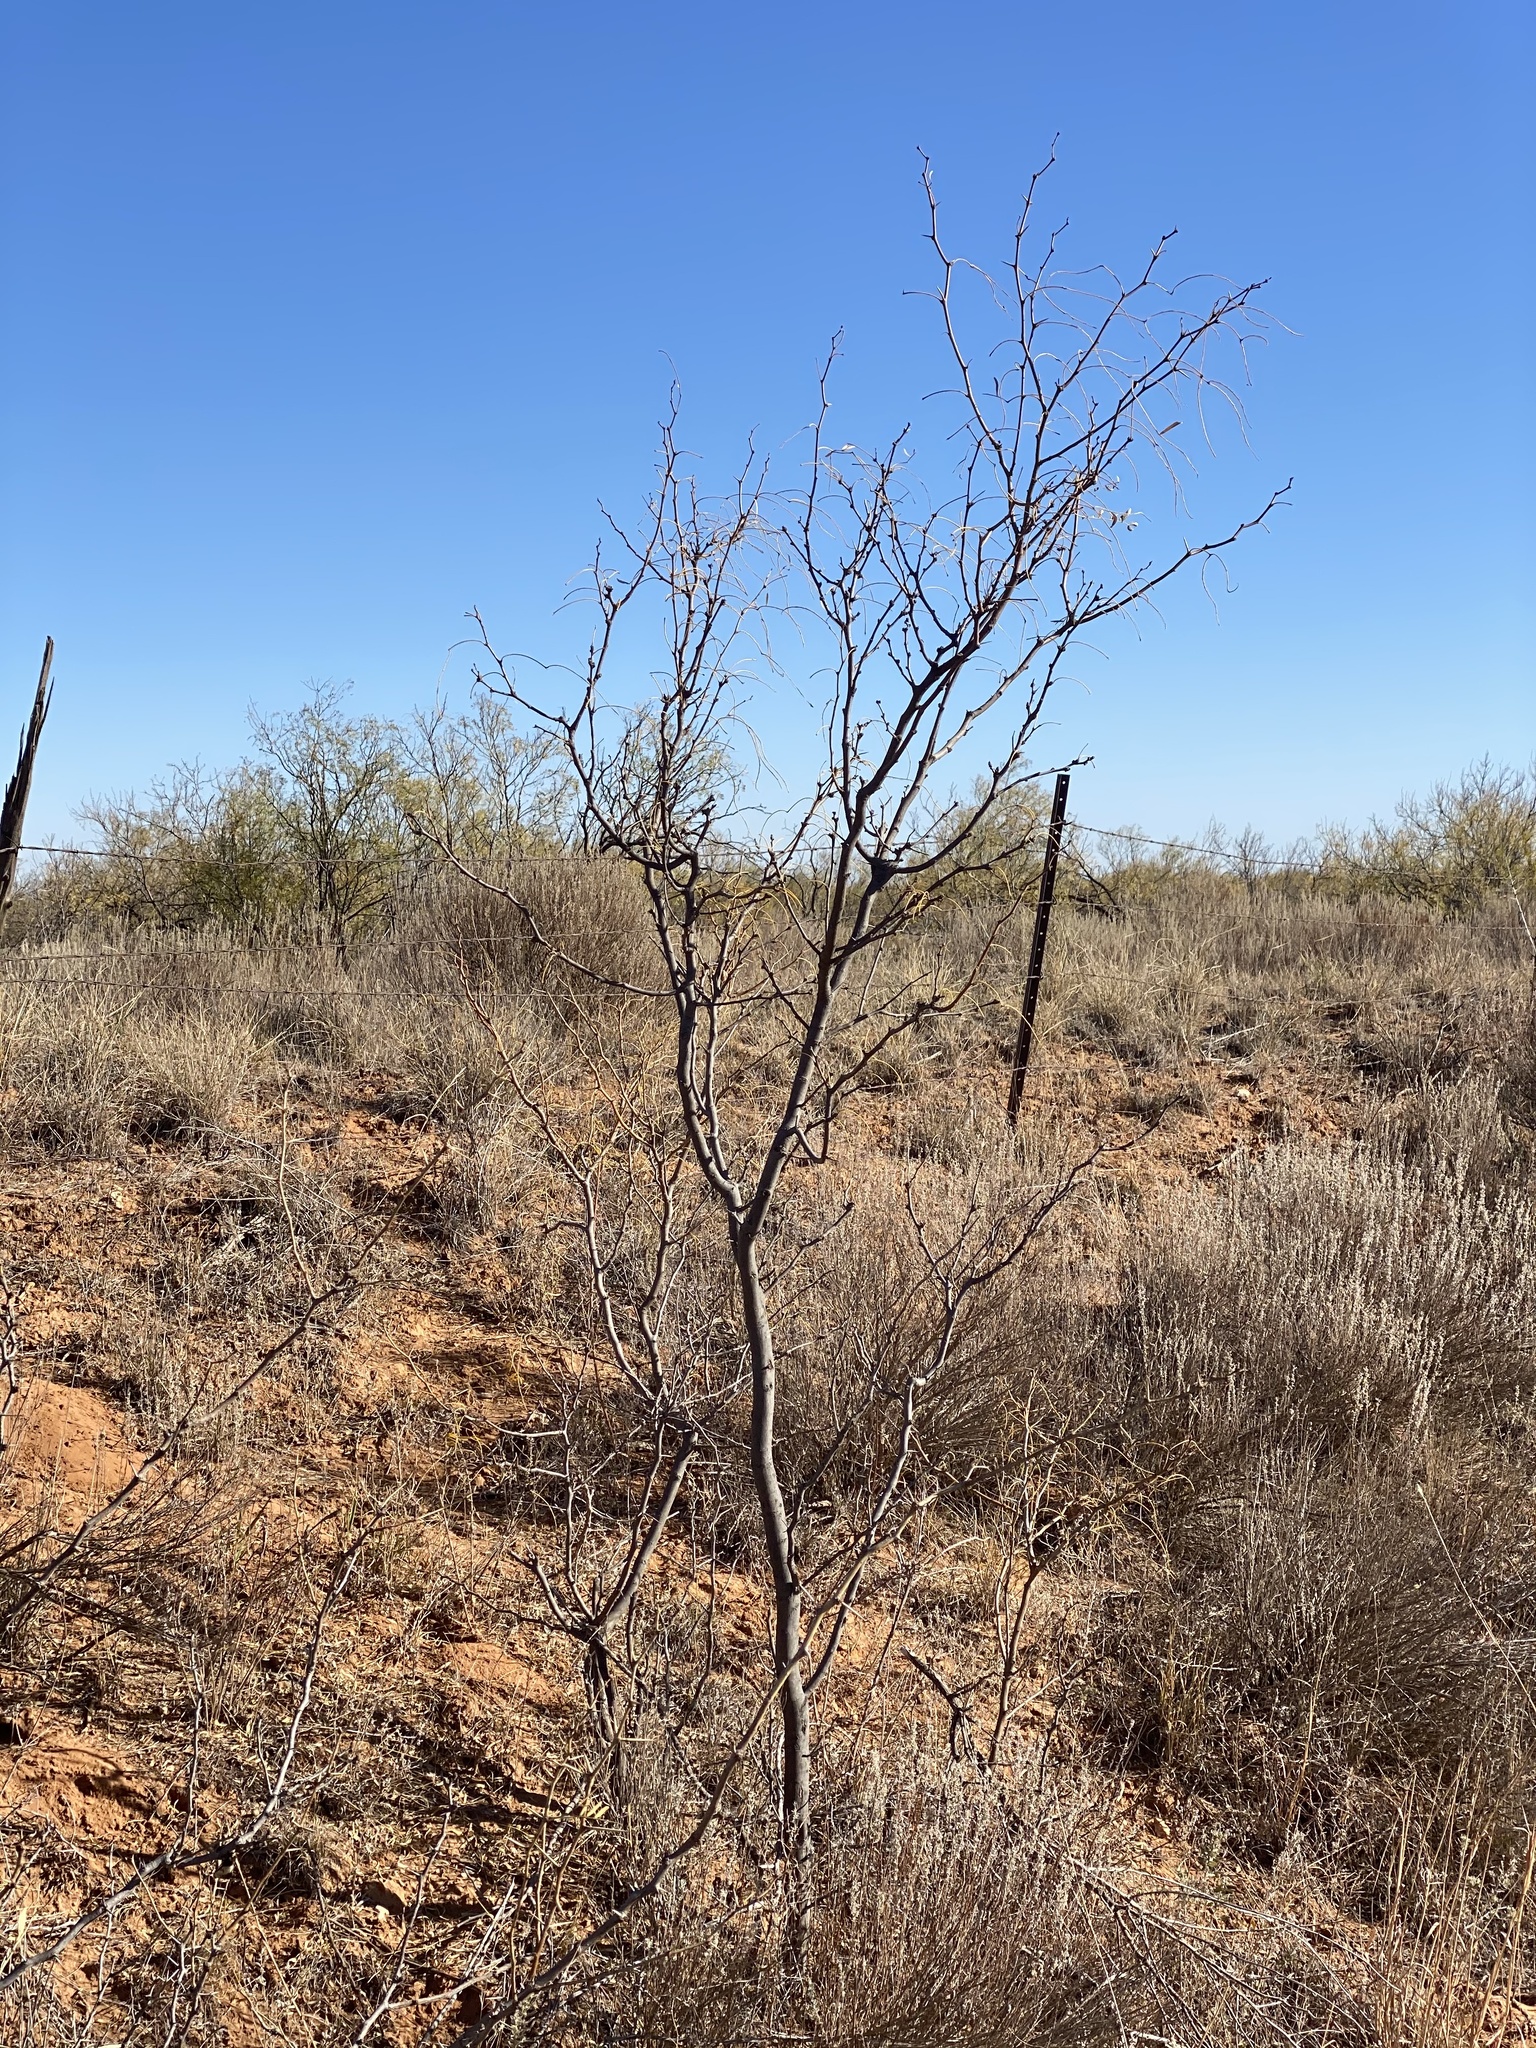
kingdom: Plantae
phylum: Tracheophyta
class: Magnoliopsida
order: Fabales
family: Fabaceae
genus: Prosopis
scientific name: Prosopis glandulosa
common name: Honey mesquite
